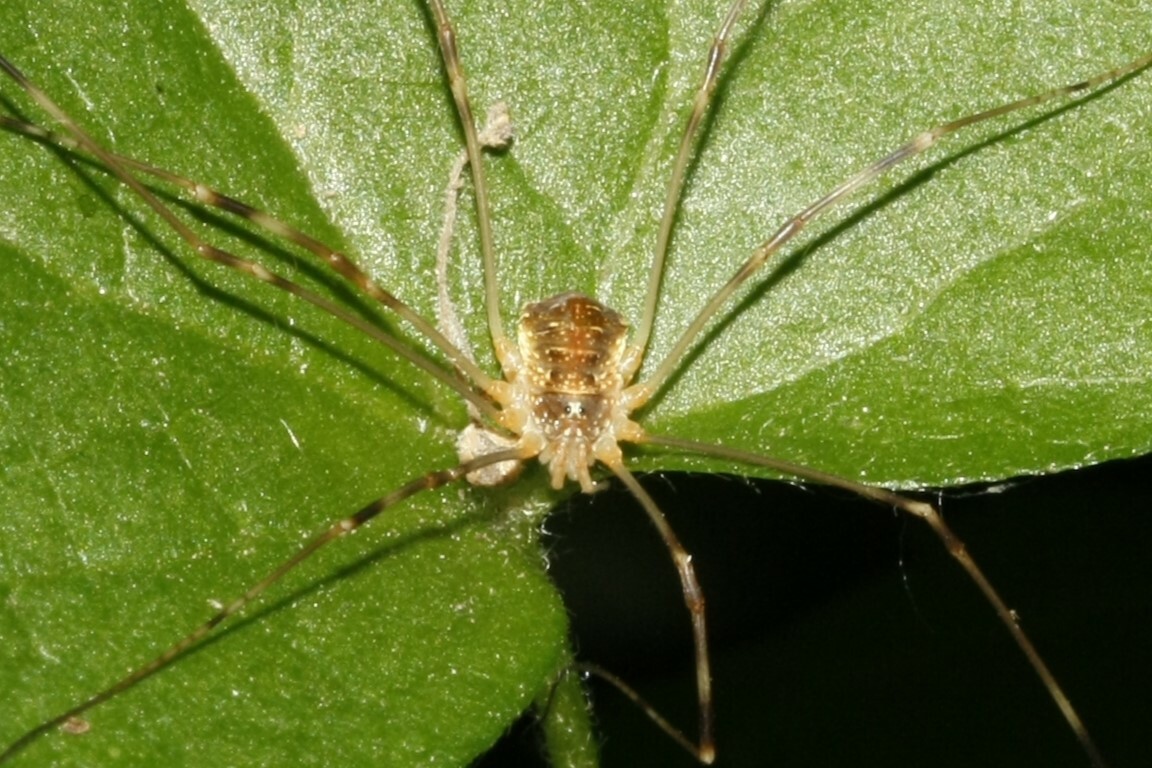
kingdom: Animalia
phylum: Arthropoda
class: Arachnida
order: Opiliones
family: Phalangiidae
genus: Opilio
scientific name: Opilio canestrinii
